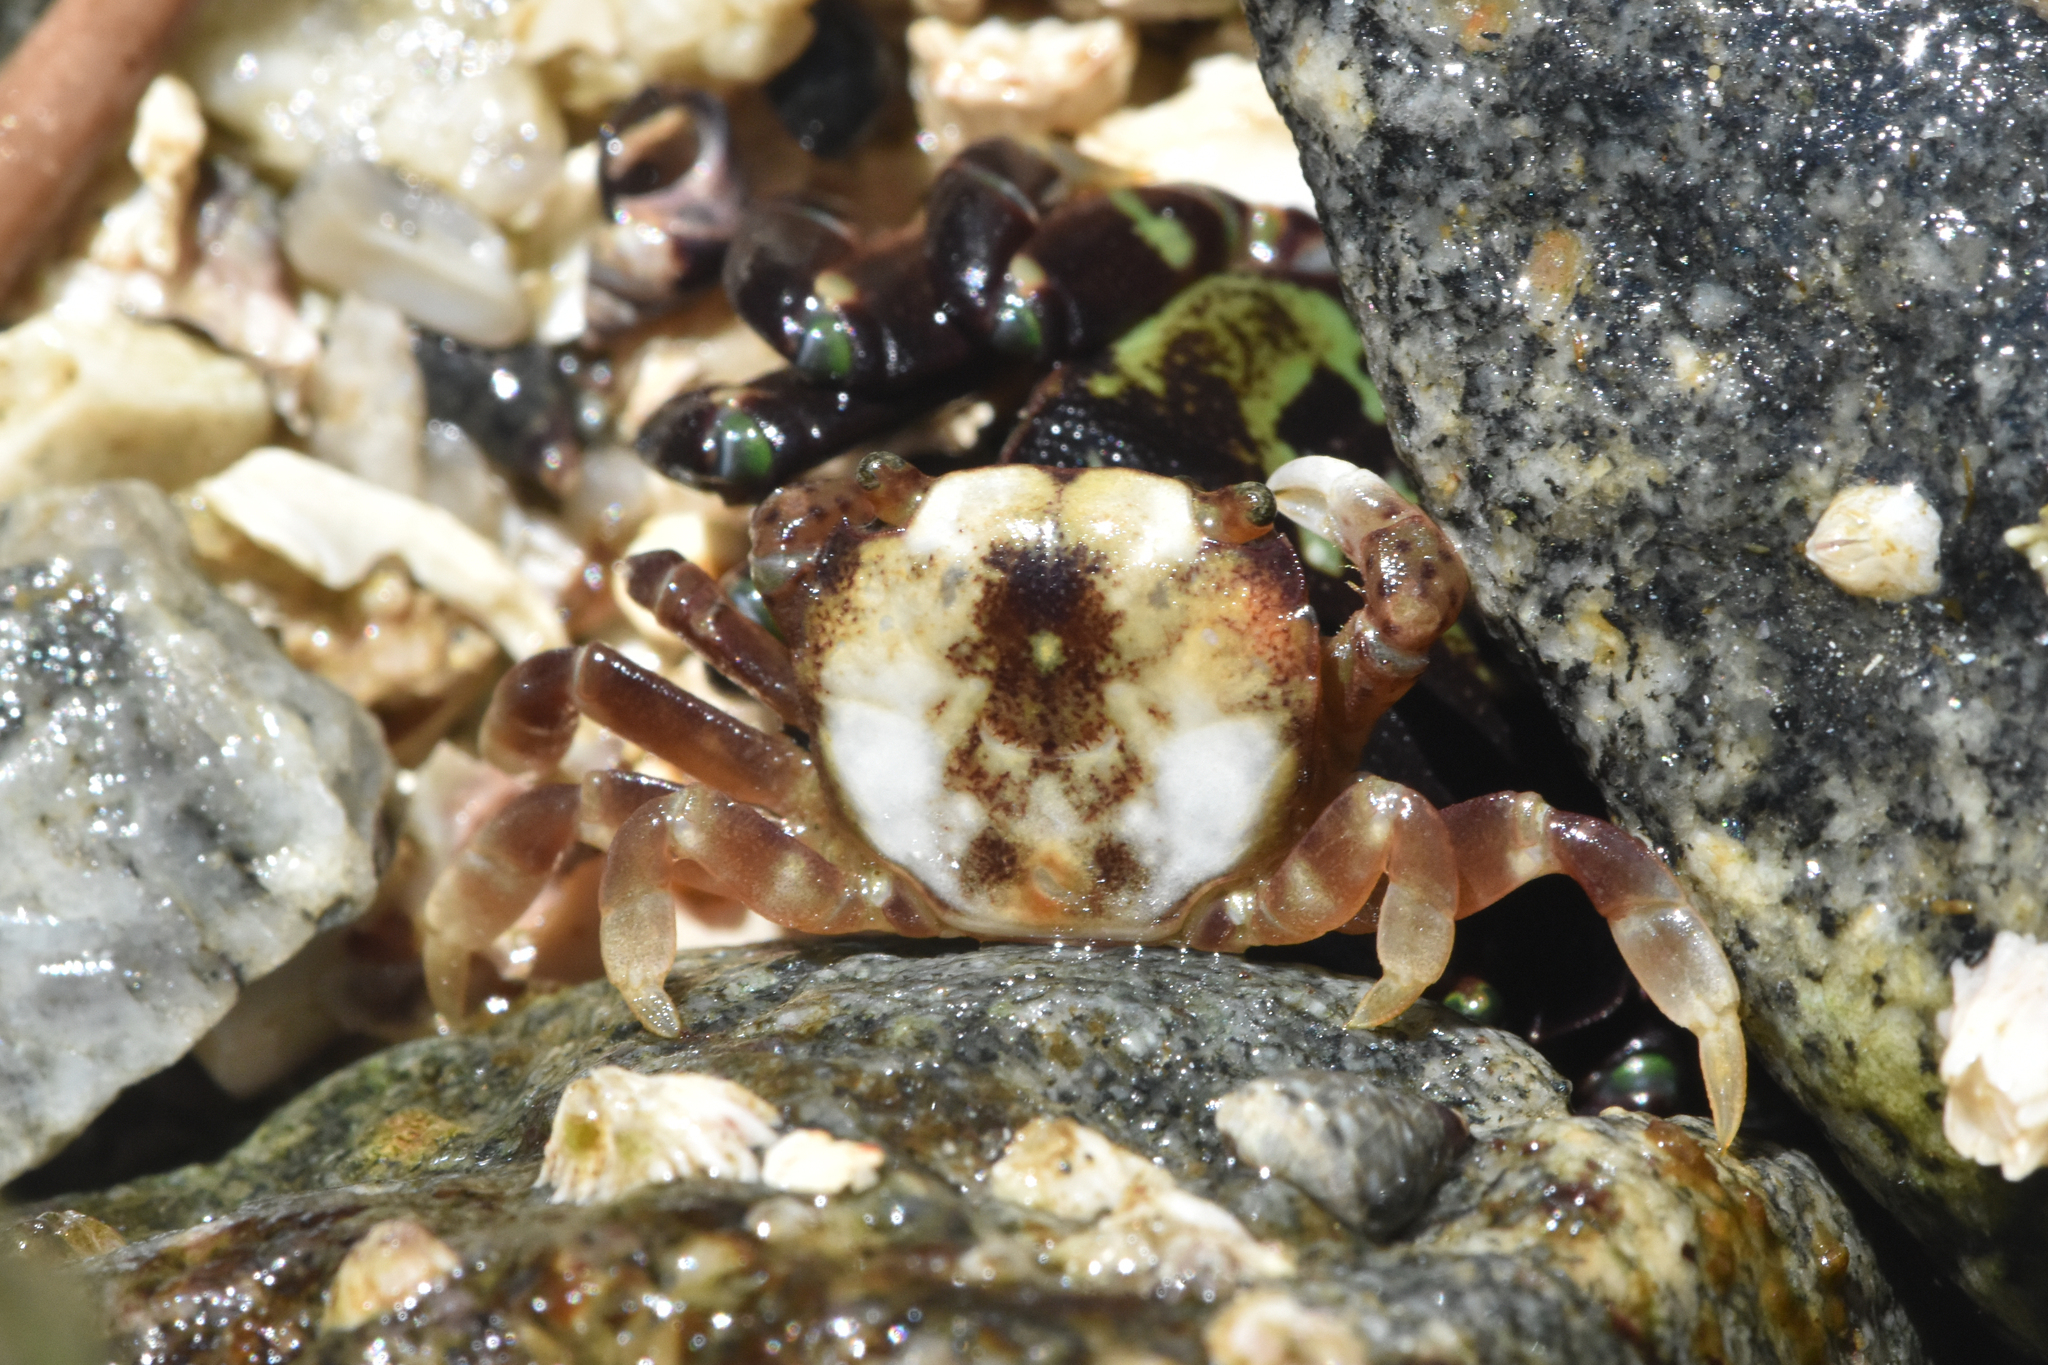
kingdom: Animalia
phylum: Arthropoda
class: Malacostraca
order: Decapoda
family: Varunidae
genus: Hemigrapsus
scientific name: Hemigrapsus nudus
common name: Purple shore crab
